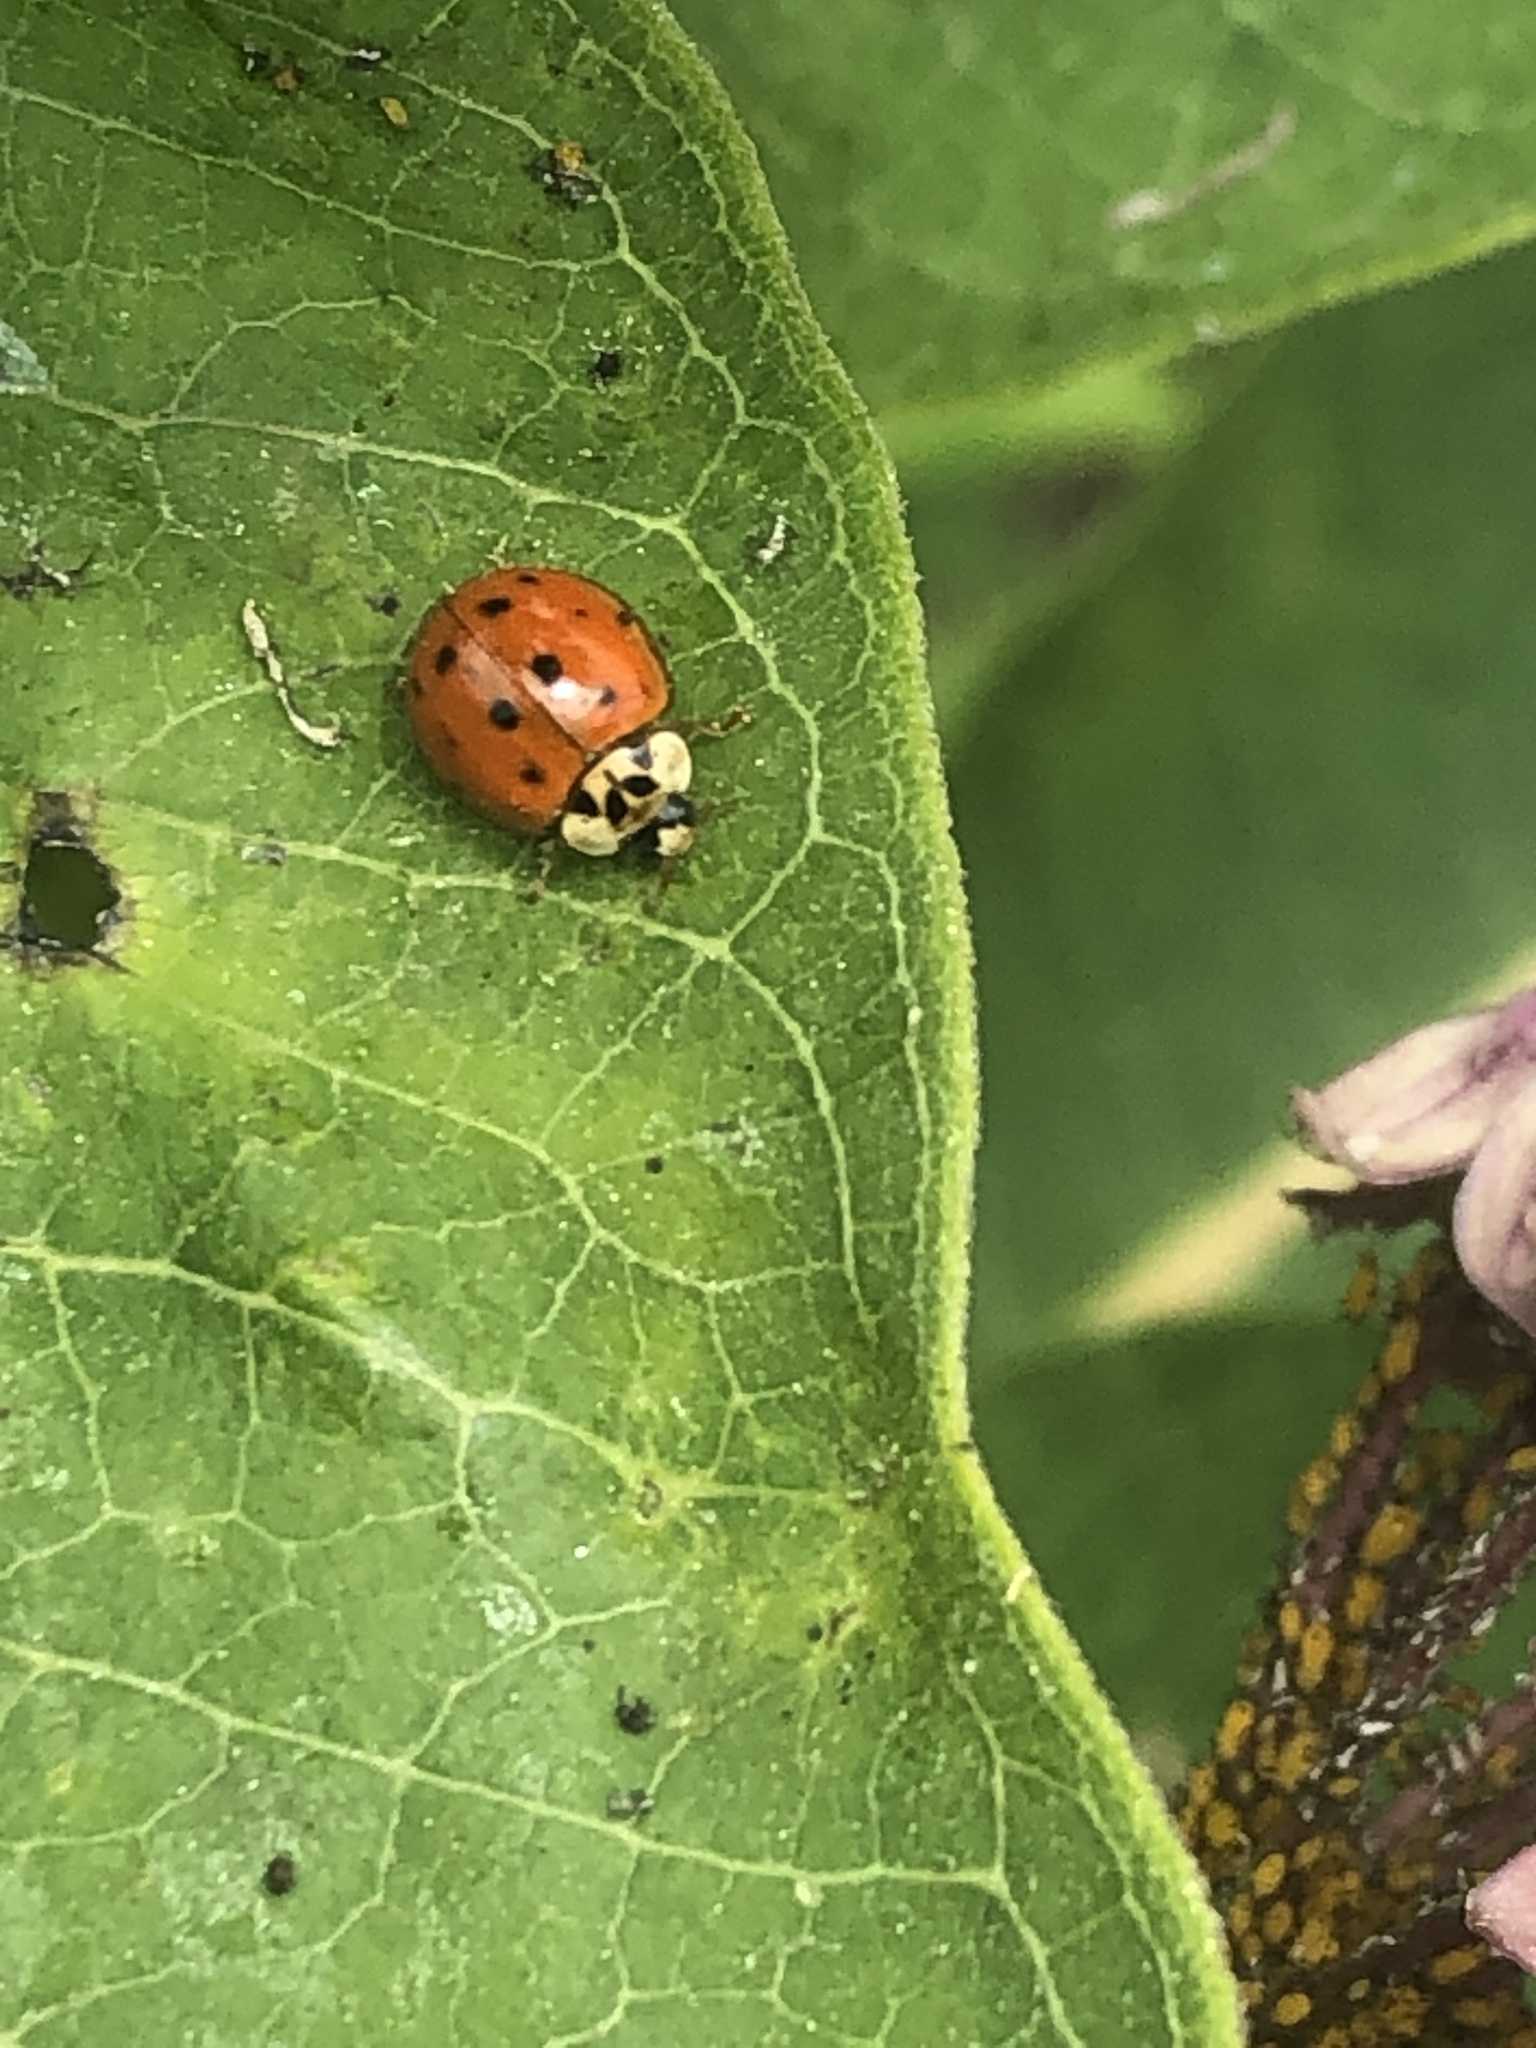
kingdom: Animalia
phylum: Arthropoda
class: Insecta
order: Coleoptera
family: Coccinellidae
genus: Harmonia
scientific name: Harmonia axyridis
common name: Harlequin ladybird
